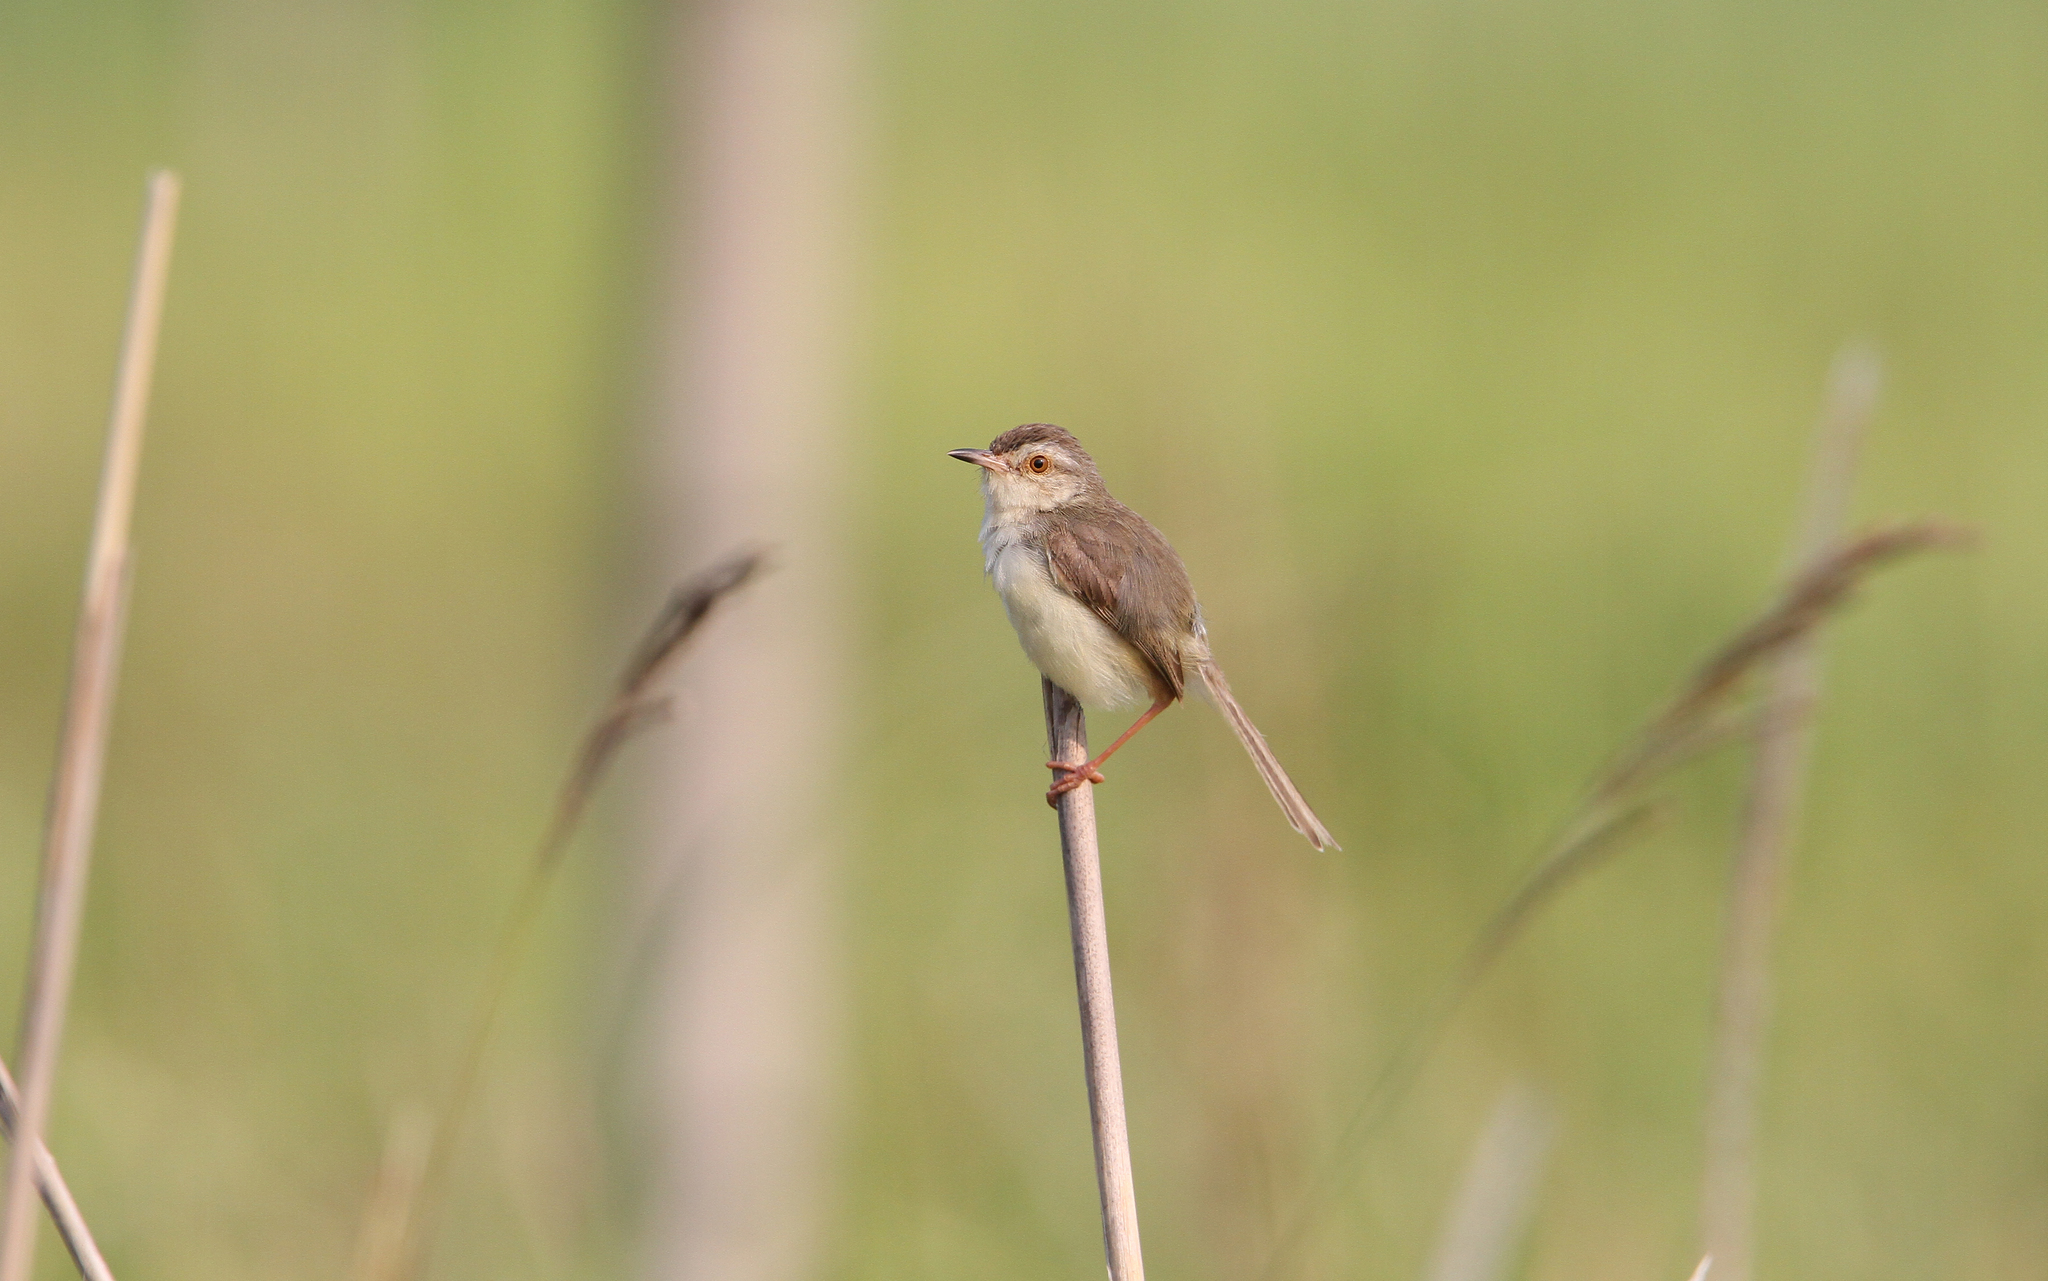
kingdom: Animalia
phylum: Chordata
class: Aves
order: Passeriformes
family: Cisticolidae
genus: Prinia
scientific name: Prinia inornata
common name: Plain prinia
